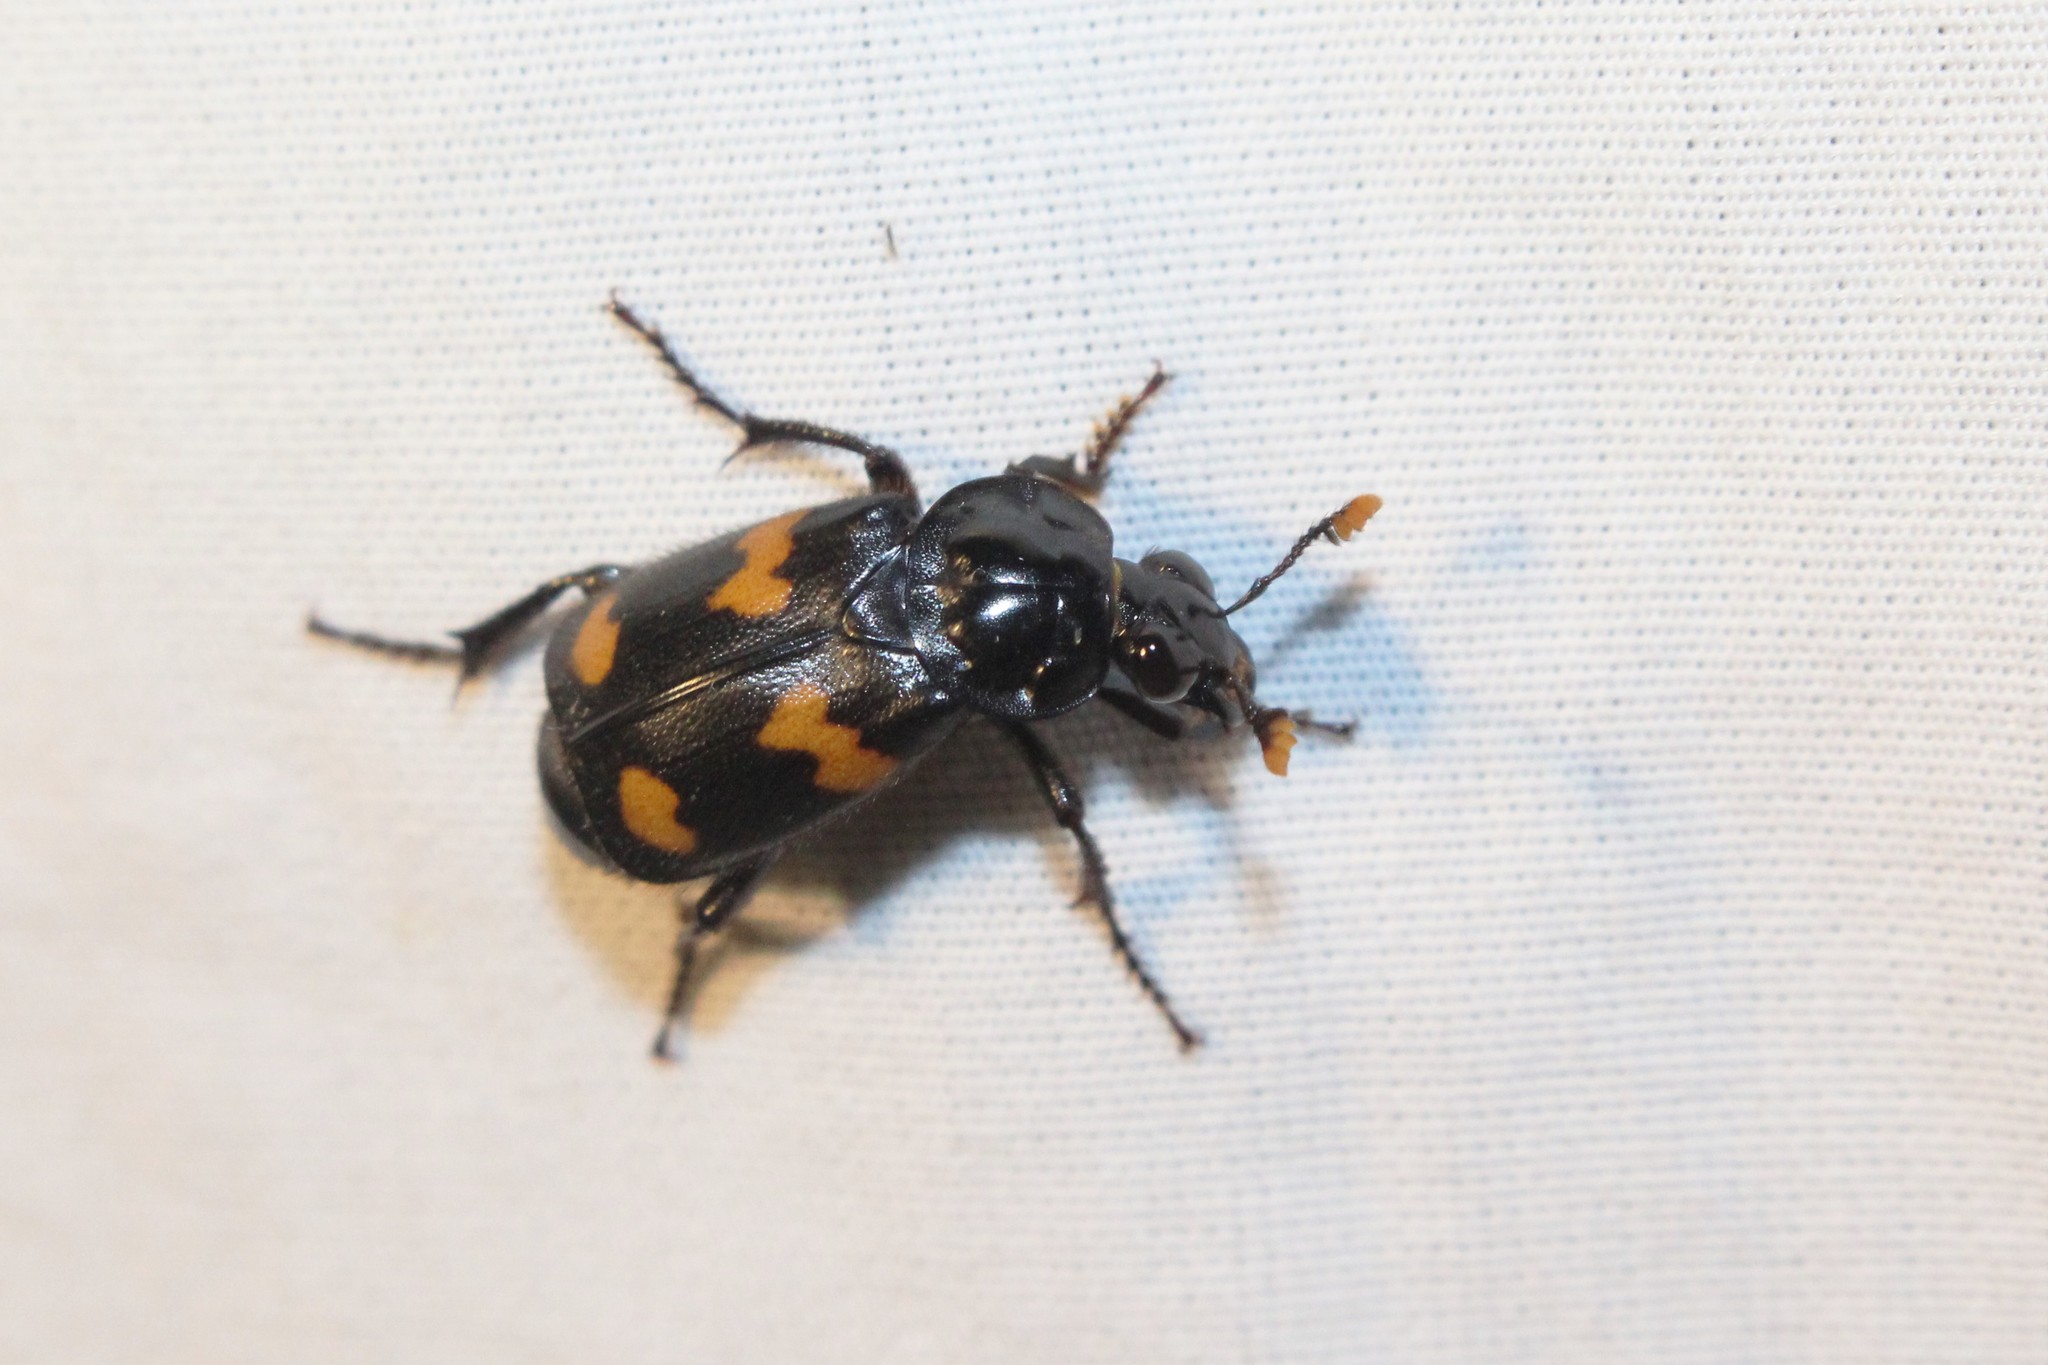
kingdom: Animalia
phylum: Arthropoda
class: Insecta
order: Coleoptera
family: Staphylinidae
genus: Nicrophorus
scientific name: Nicrophorus orbicollis
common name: Roundneck sexton beetle
